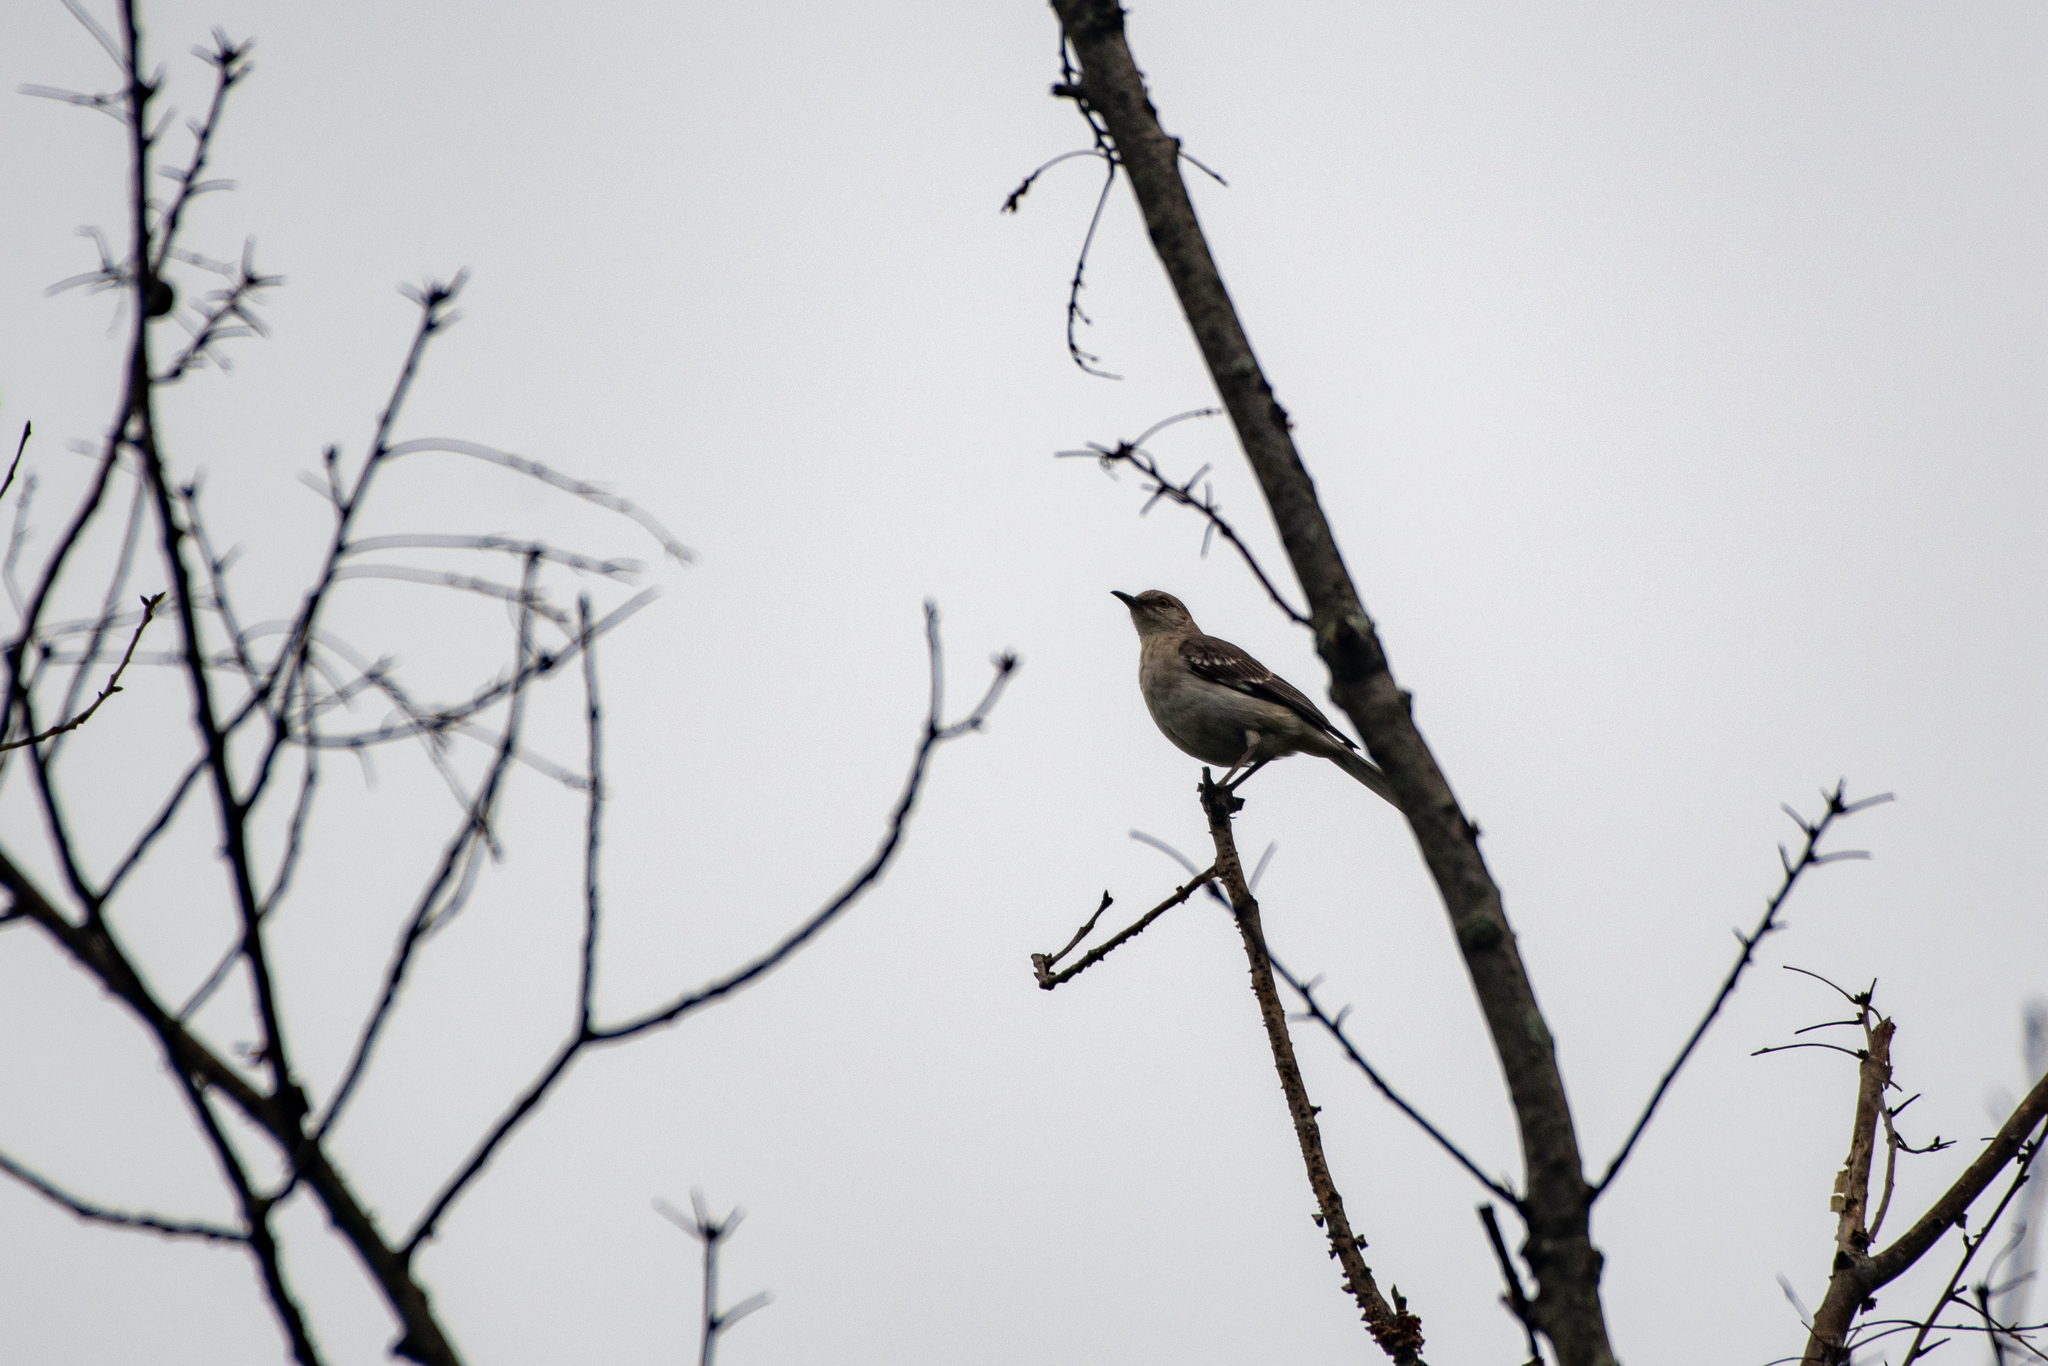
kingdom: Animalia
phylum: Chordata
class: Aves
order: Passeriformes
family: Mimidae
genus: Mimus
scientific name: Mimus polyglottos
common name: Northern mockingbird
